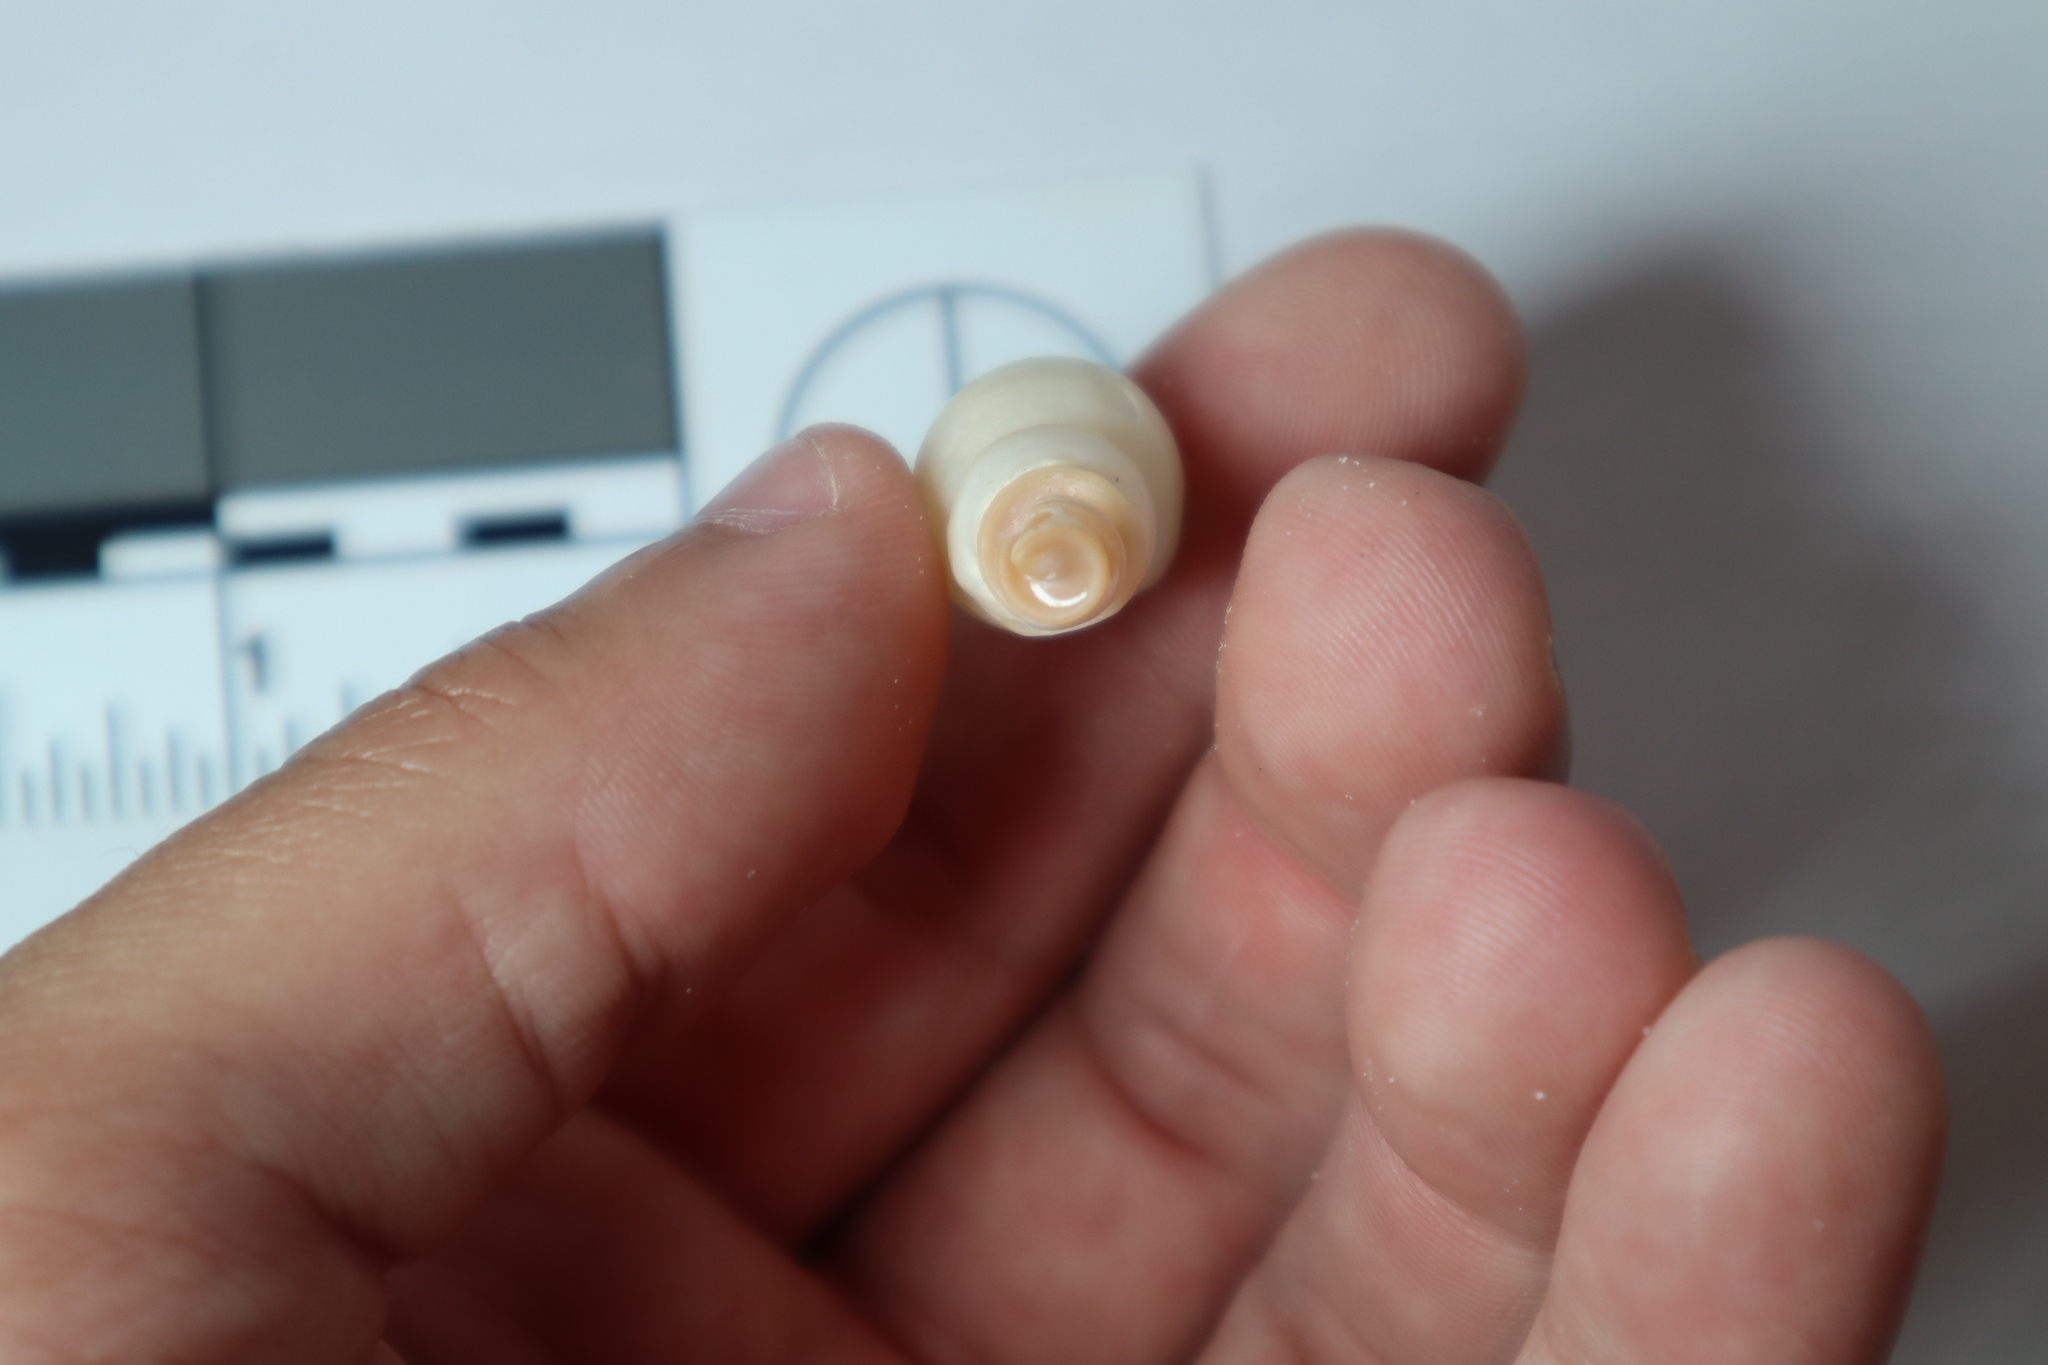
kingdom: Animalia
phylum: Mollusca
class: Gastropoda
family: Turritellidae
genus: Vermicularia
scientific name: Vermicularia fargoi
